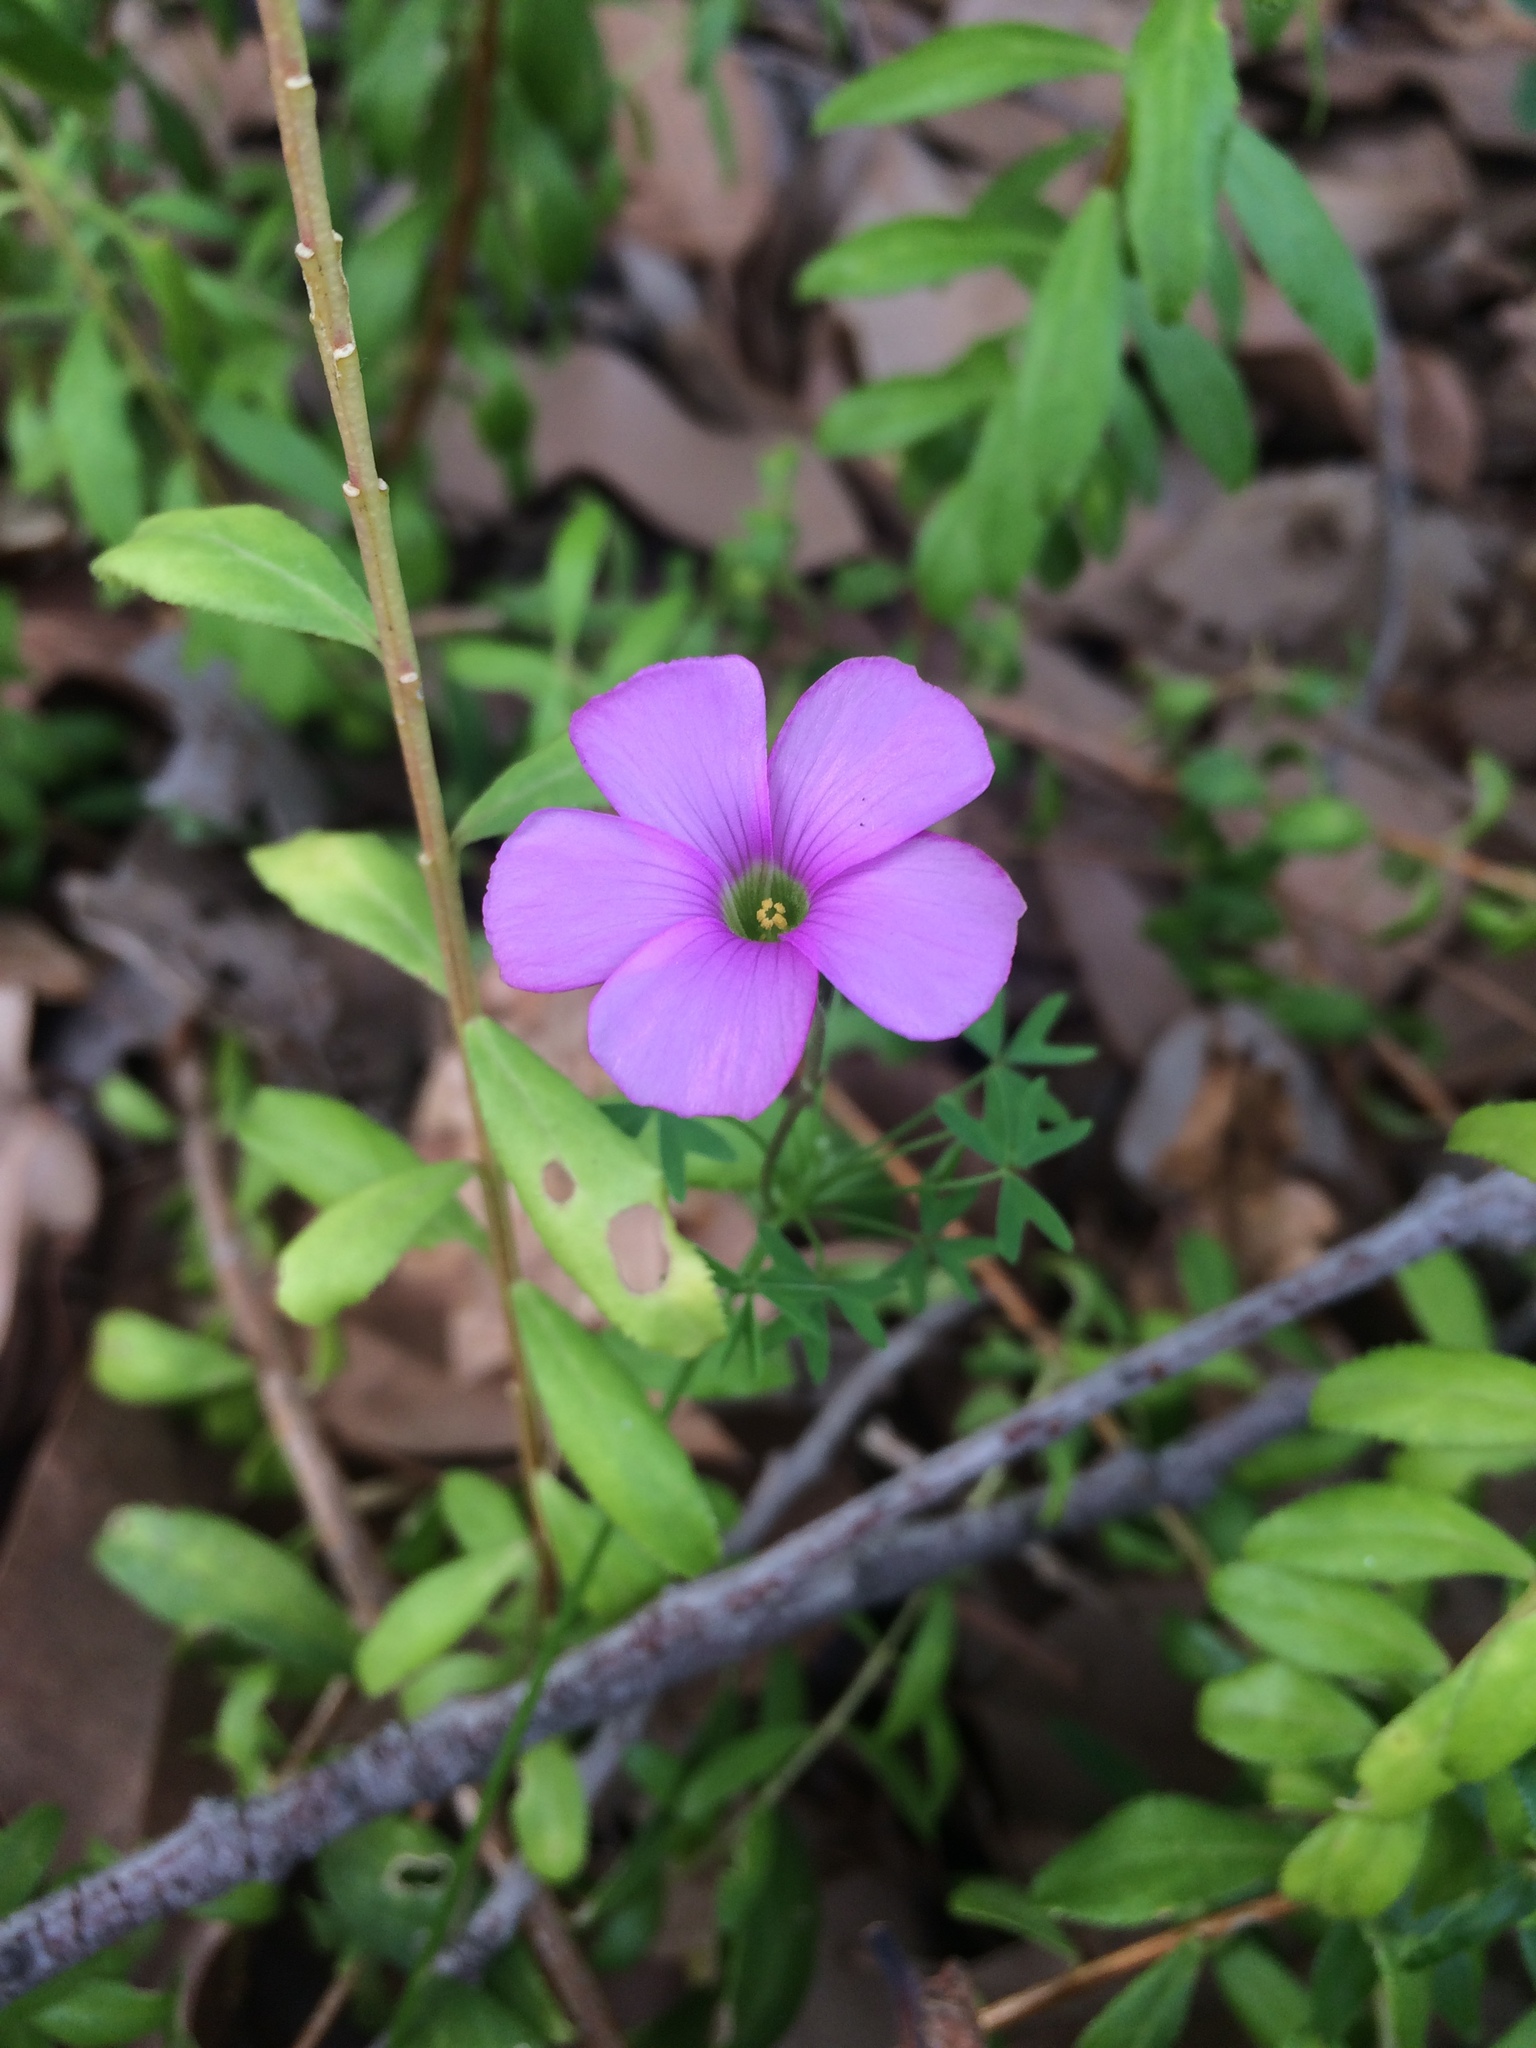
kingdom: Plantae
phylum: Tracheophyta
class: Magnoliopsida
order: Oxalidales
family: Oxalidaceae
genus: Oxalis
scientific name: Oxalis bifida
